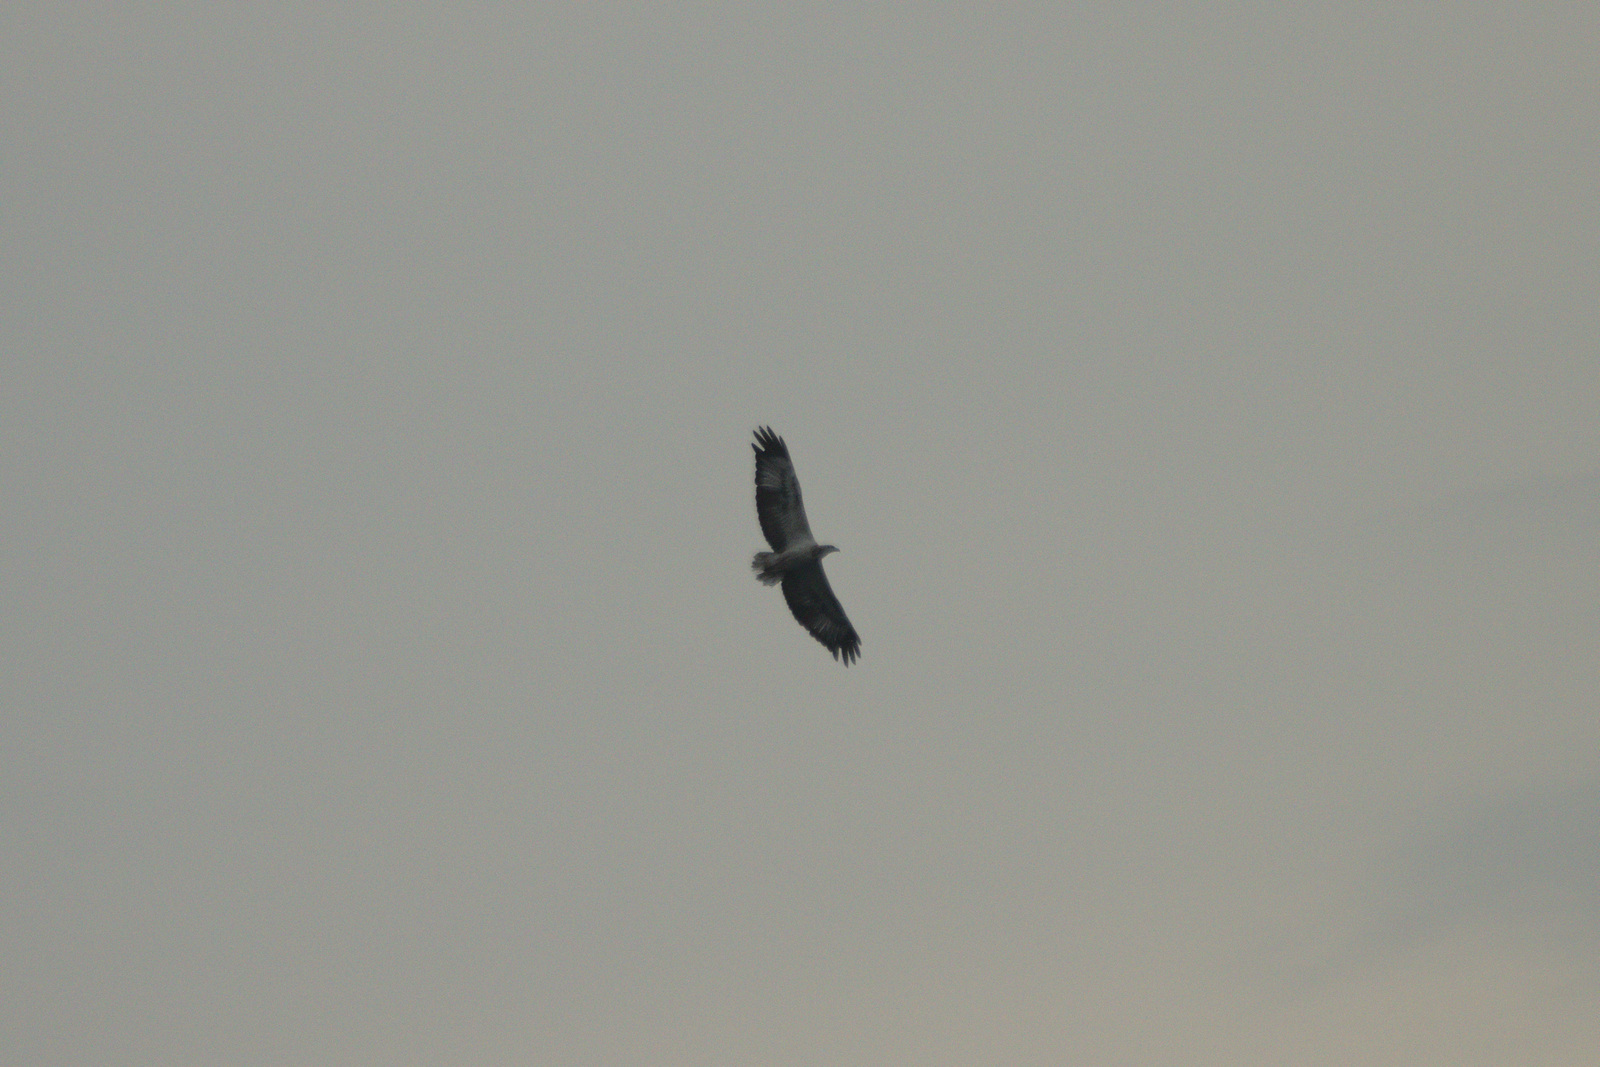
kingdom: Animalia
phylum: Chordata
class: Aves
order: Accipitriformes
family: Accipitridae
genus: Haliaeetus
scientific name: Haliaeetus leucogaster
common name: White-bellied sea eagle
